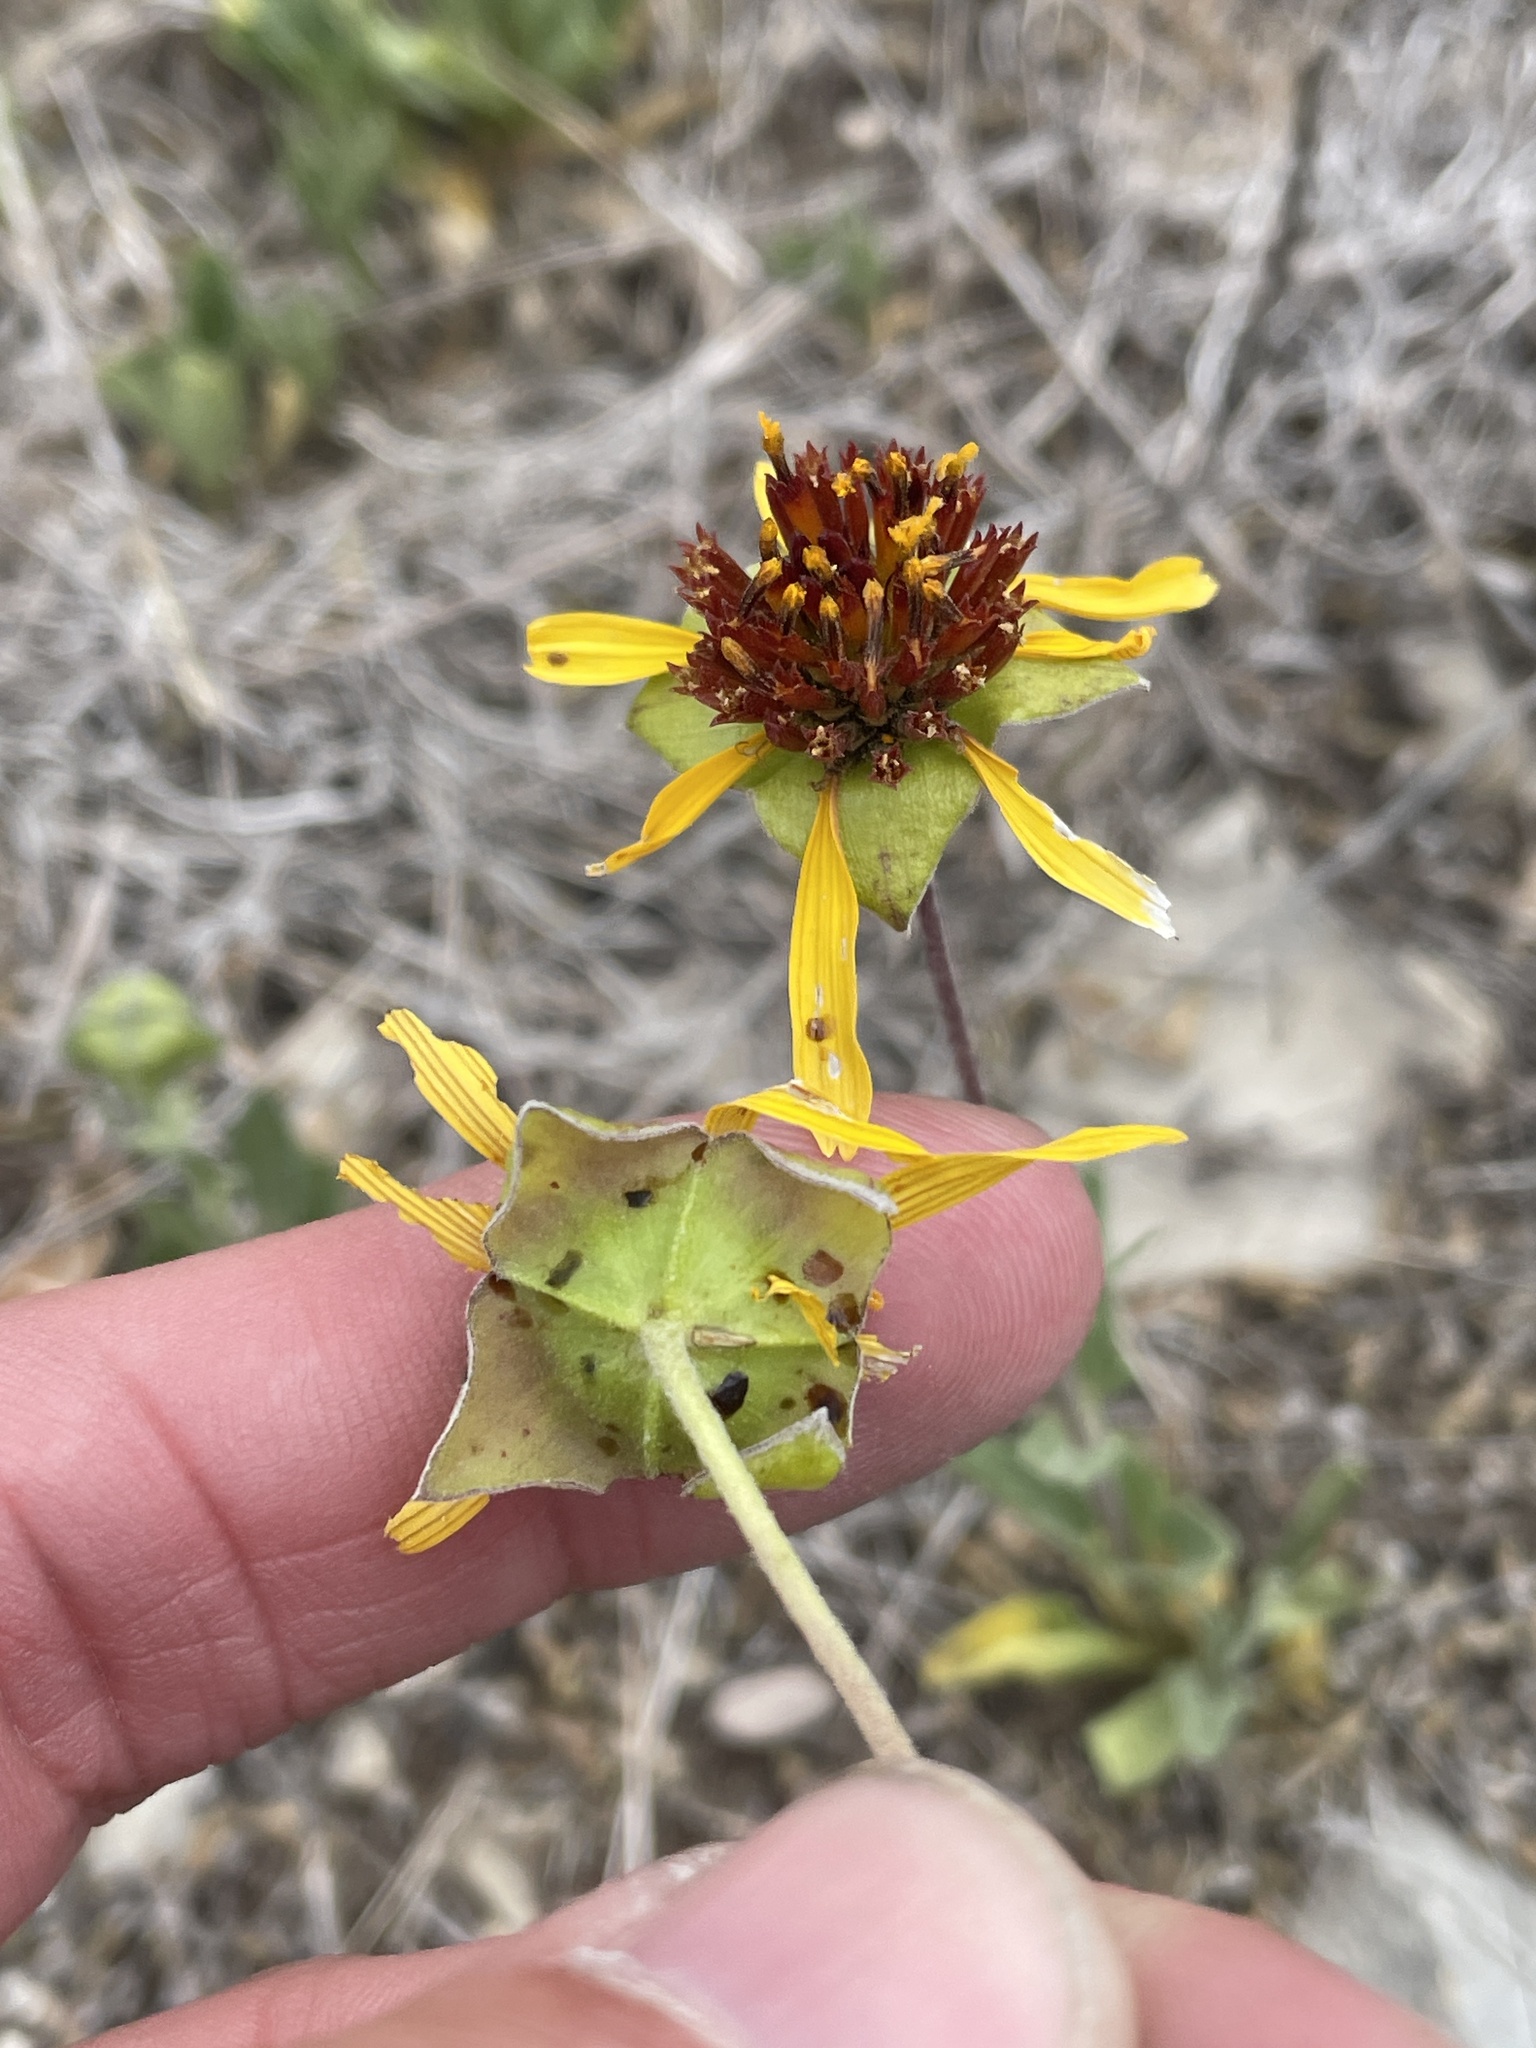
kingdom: Plantae
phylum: Tracheophyta
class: Magnoliopsida
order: Asterales
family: Asteraceae
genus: Tetragonotheca
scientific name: Tetragonotheca texana
